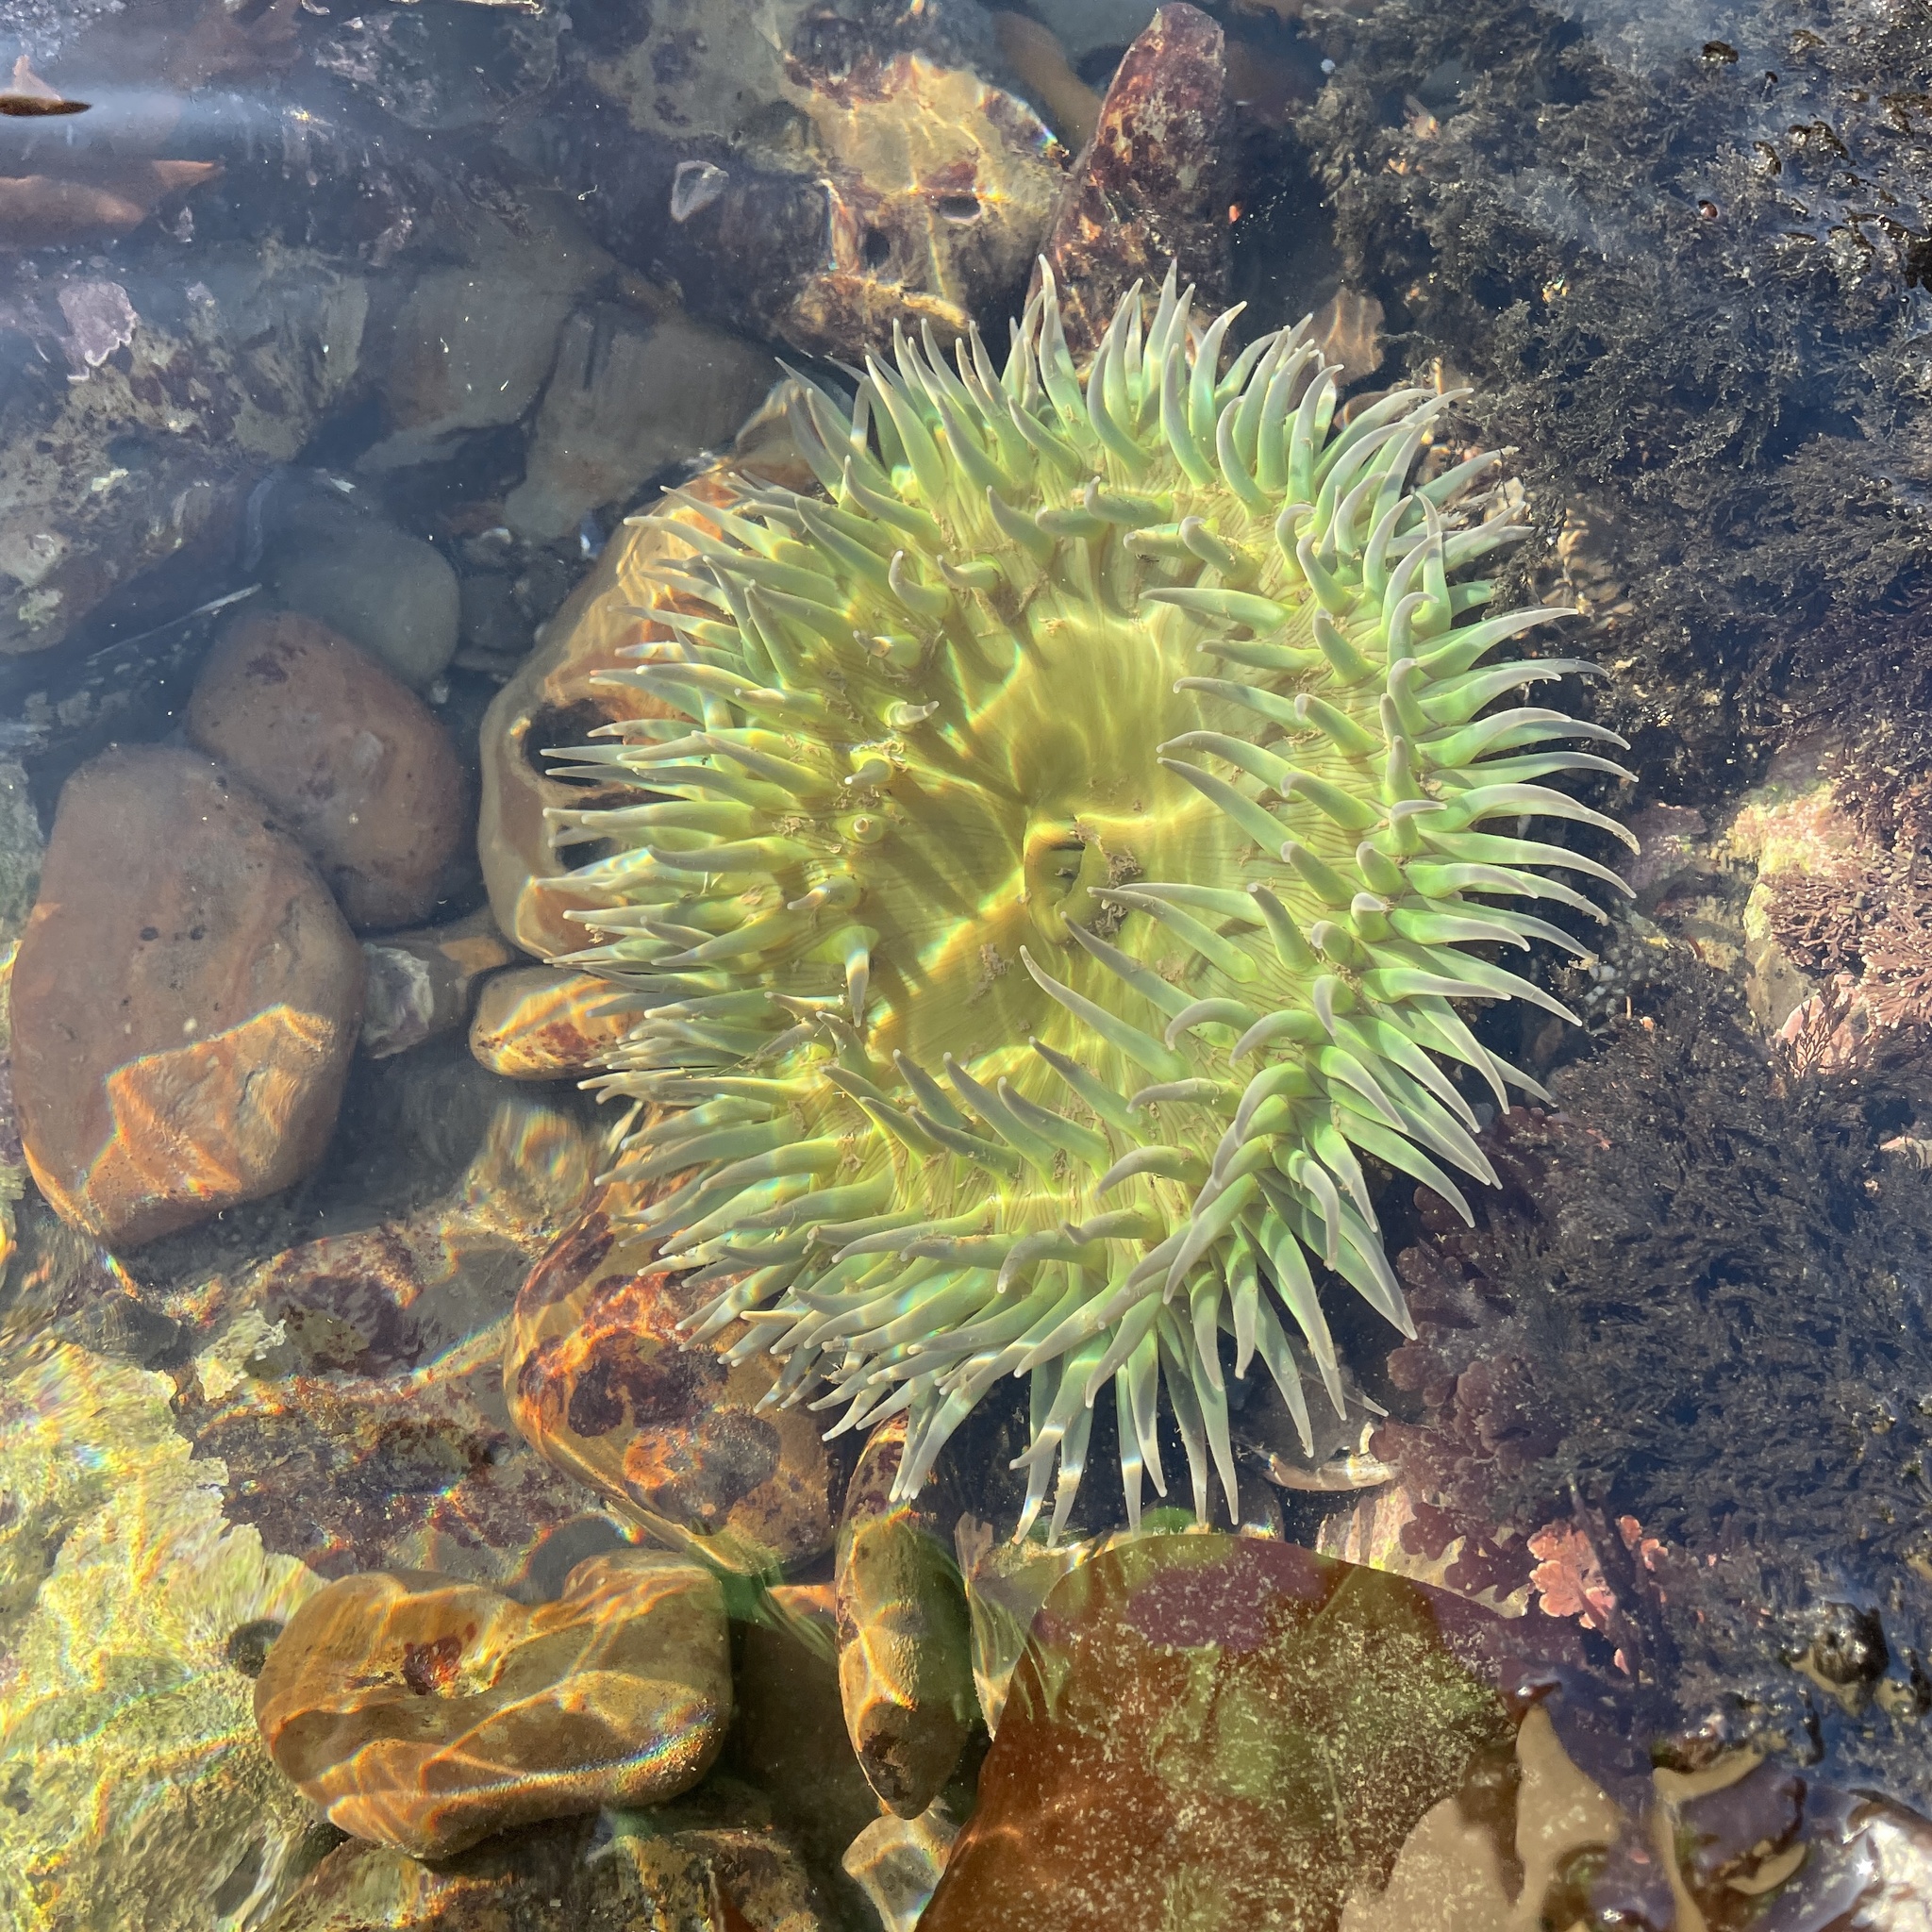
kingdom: Animalia
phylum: Cnidaria
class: Anthozoa
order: Actiniaria
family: Actiniidae
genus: Anthopleura
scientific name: Anthopleura xanthogrammica
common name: Giant green anemone
